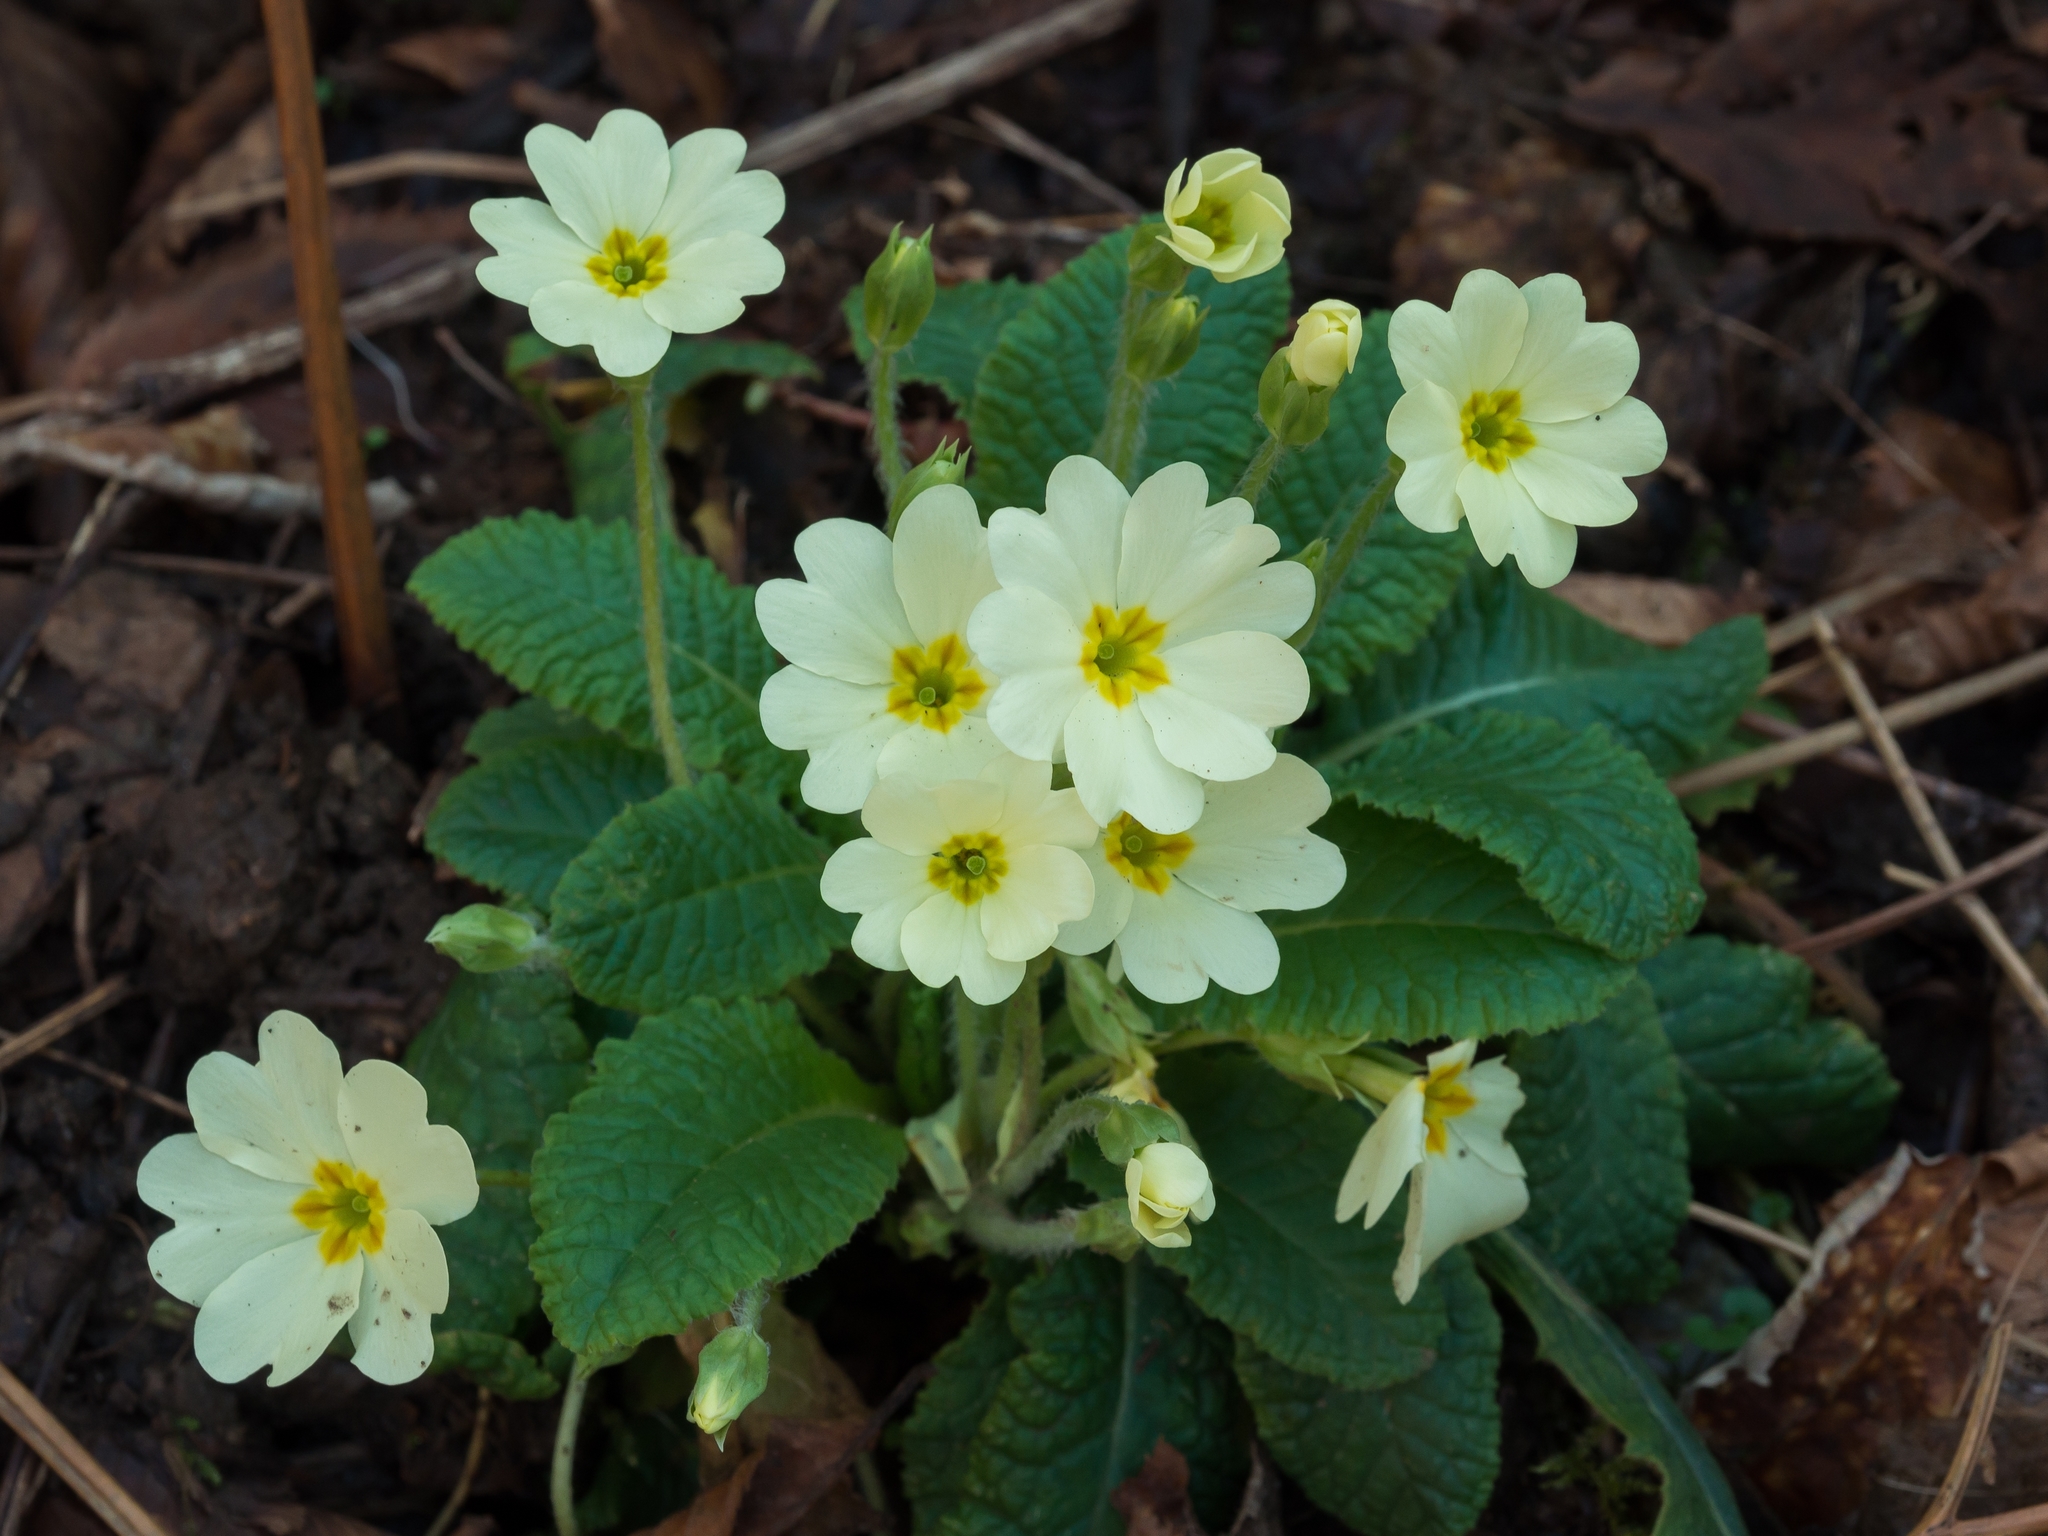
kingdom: Plantae
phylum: Tracheophyta
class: Magnoliopsida
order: Ericales
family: Primulaceae
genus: Primula
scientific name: Primula vulgaris
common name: Primrose
